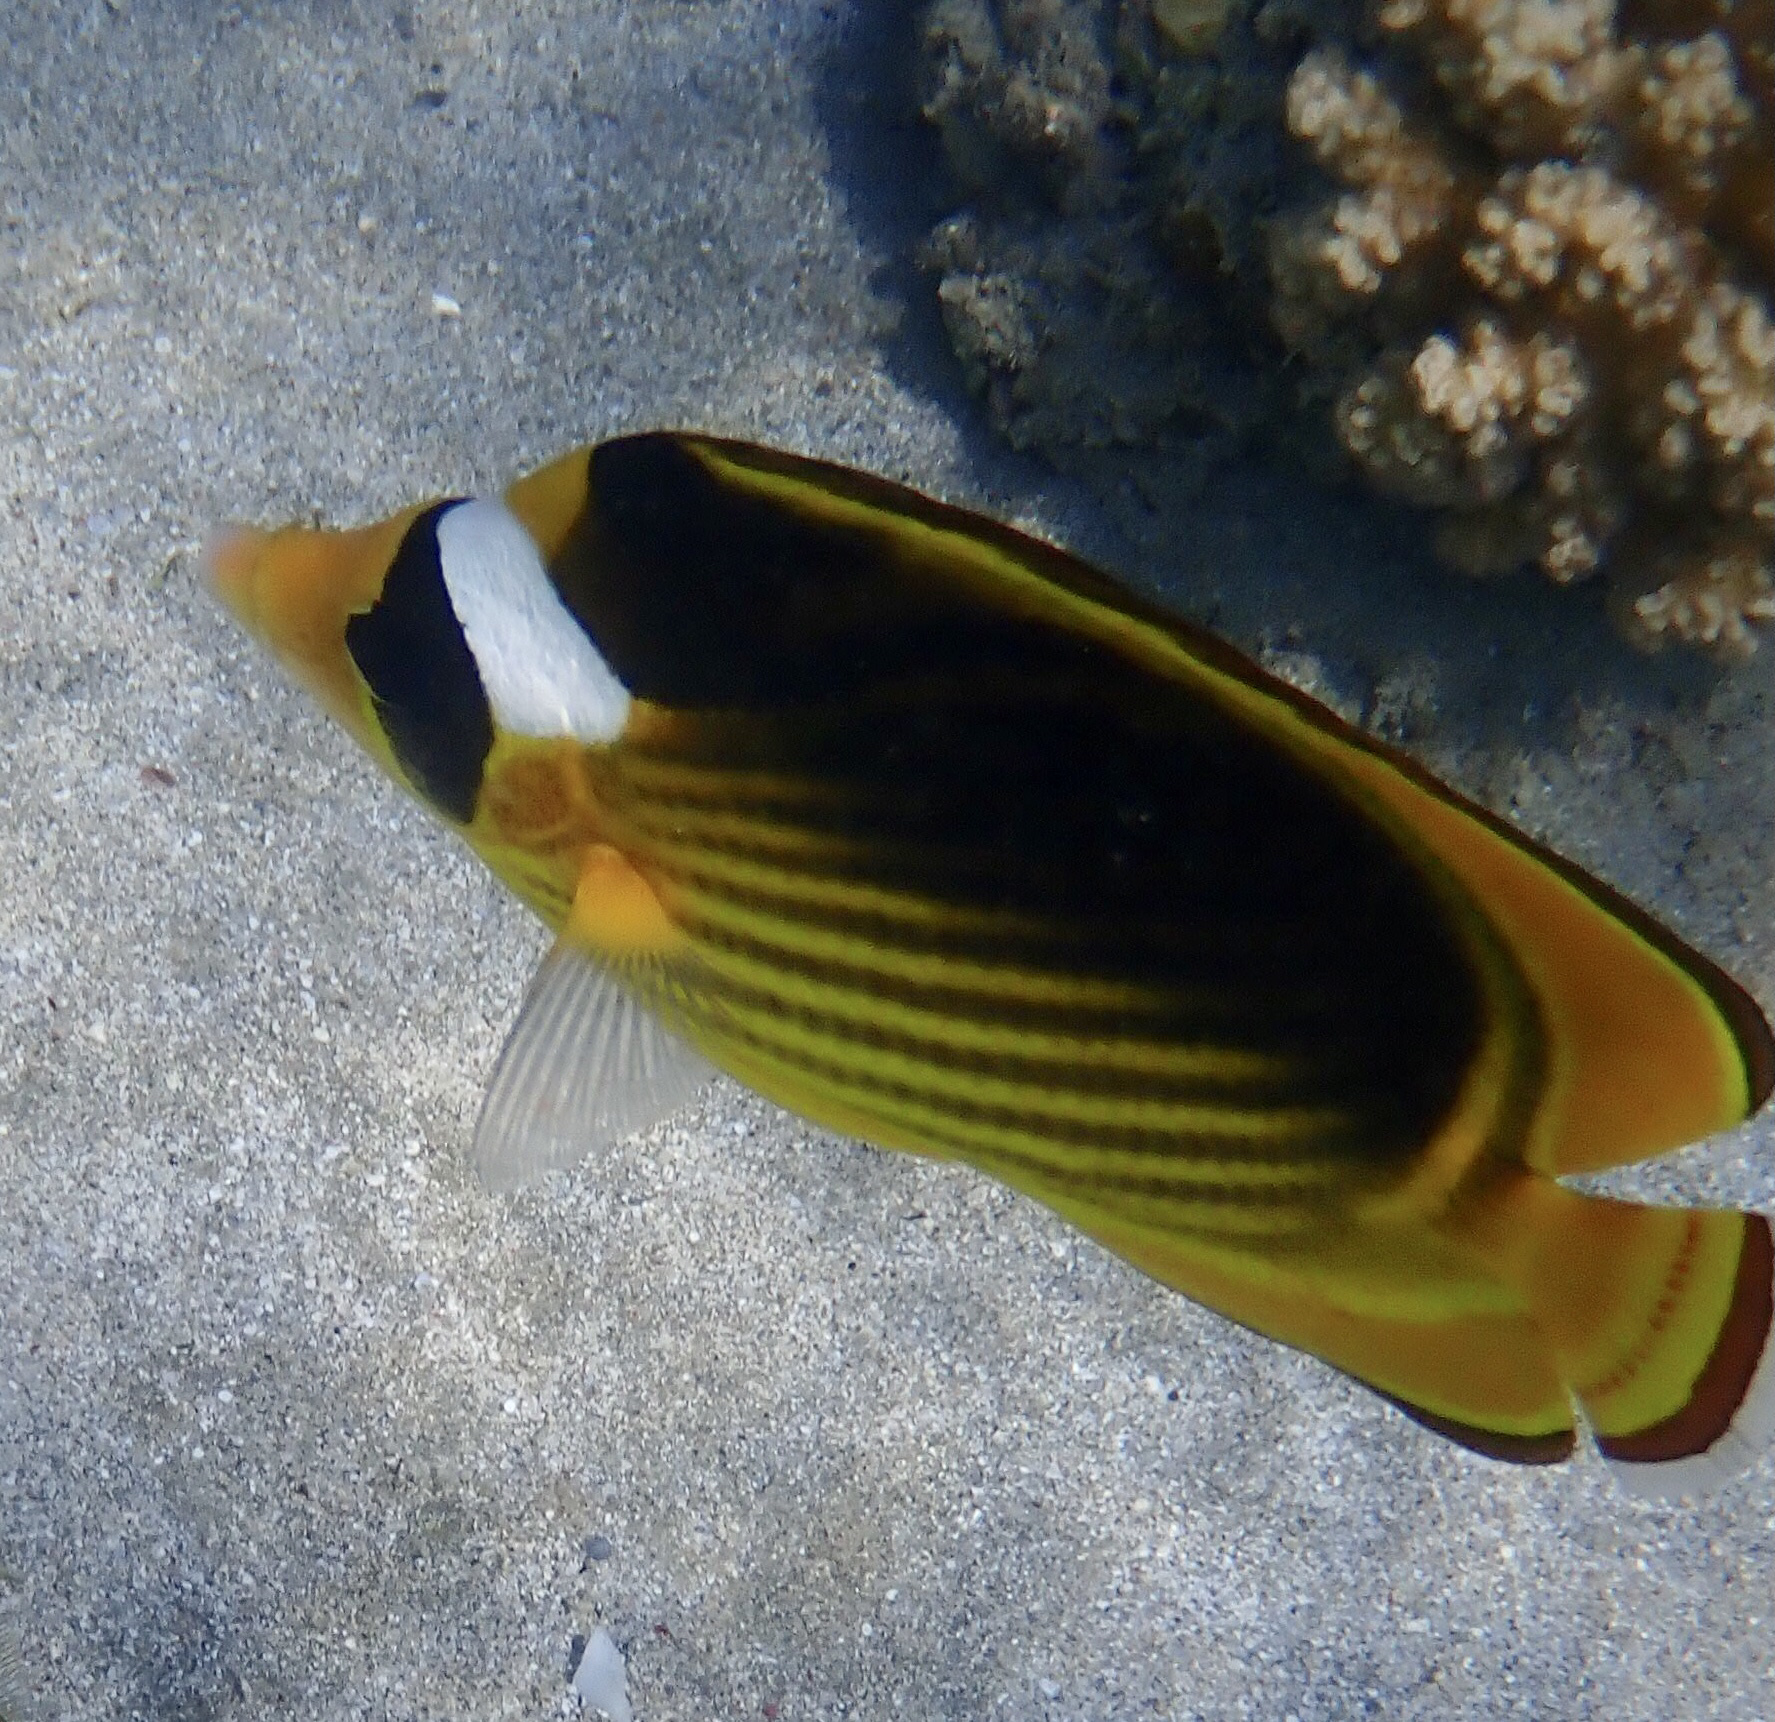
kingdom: Animalia
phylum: Chordata
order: Perciformes
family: Chaetodontidae
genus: Chaetodon
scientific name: Chaetodon fasciatus
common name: Diagonal butterflyfish
